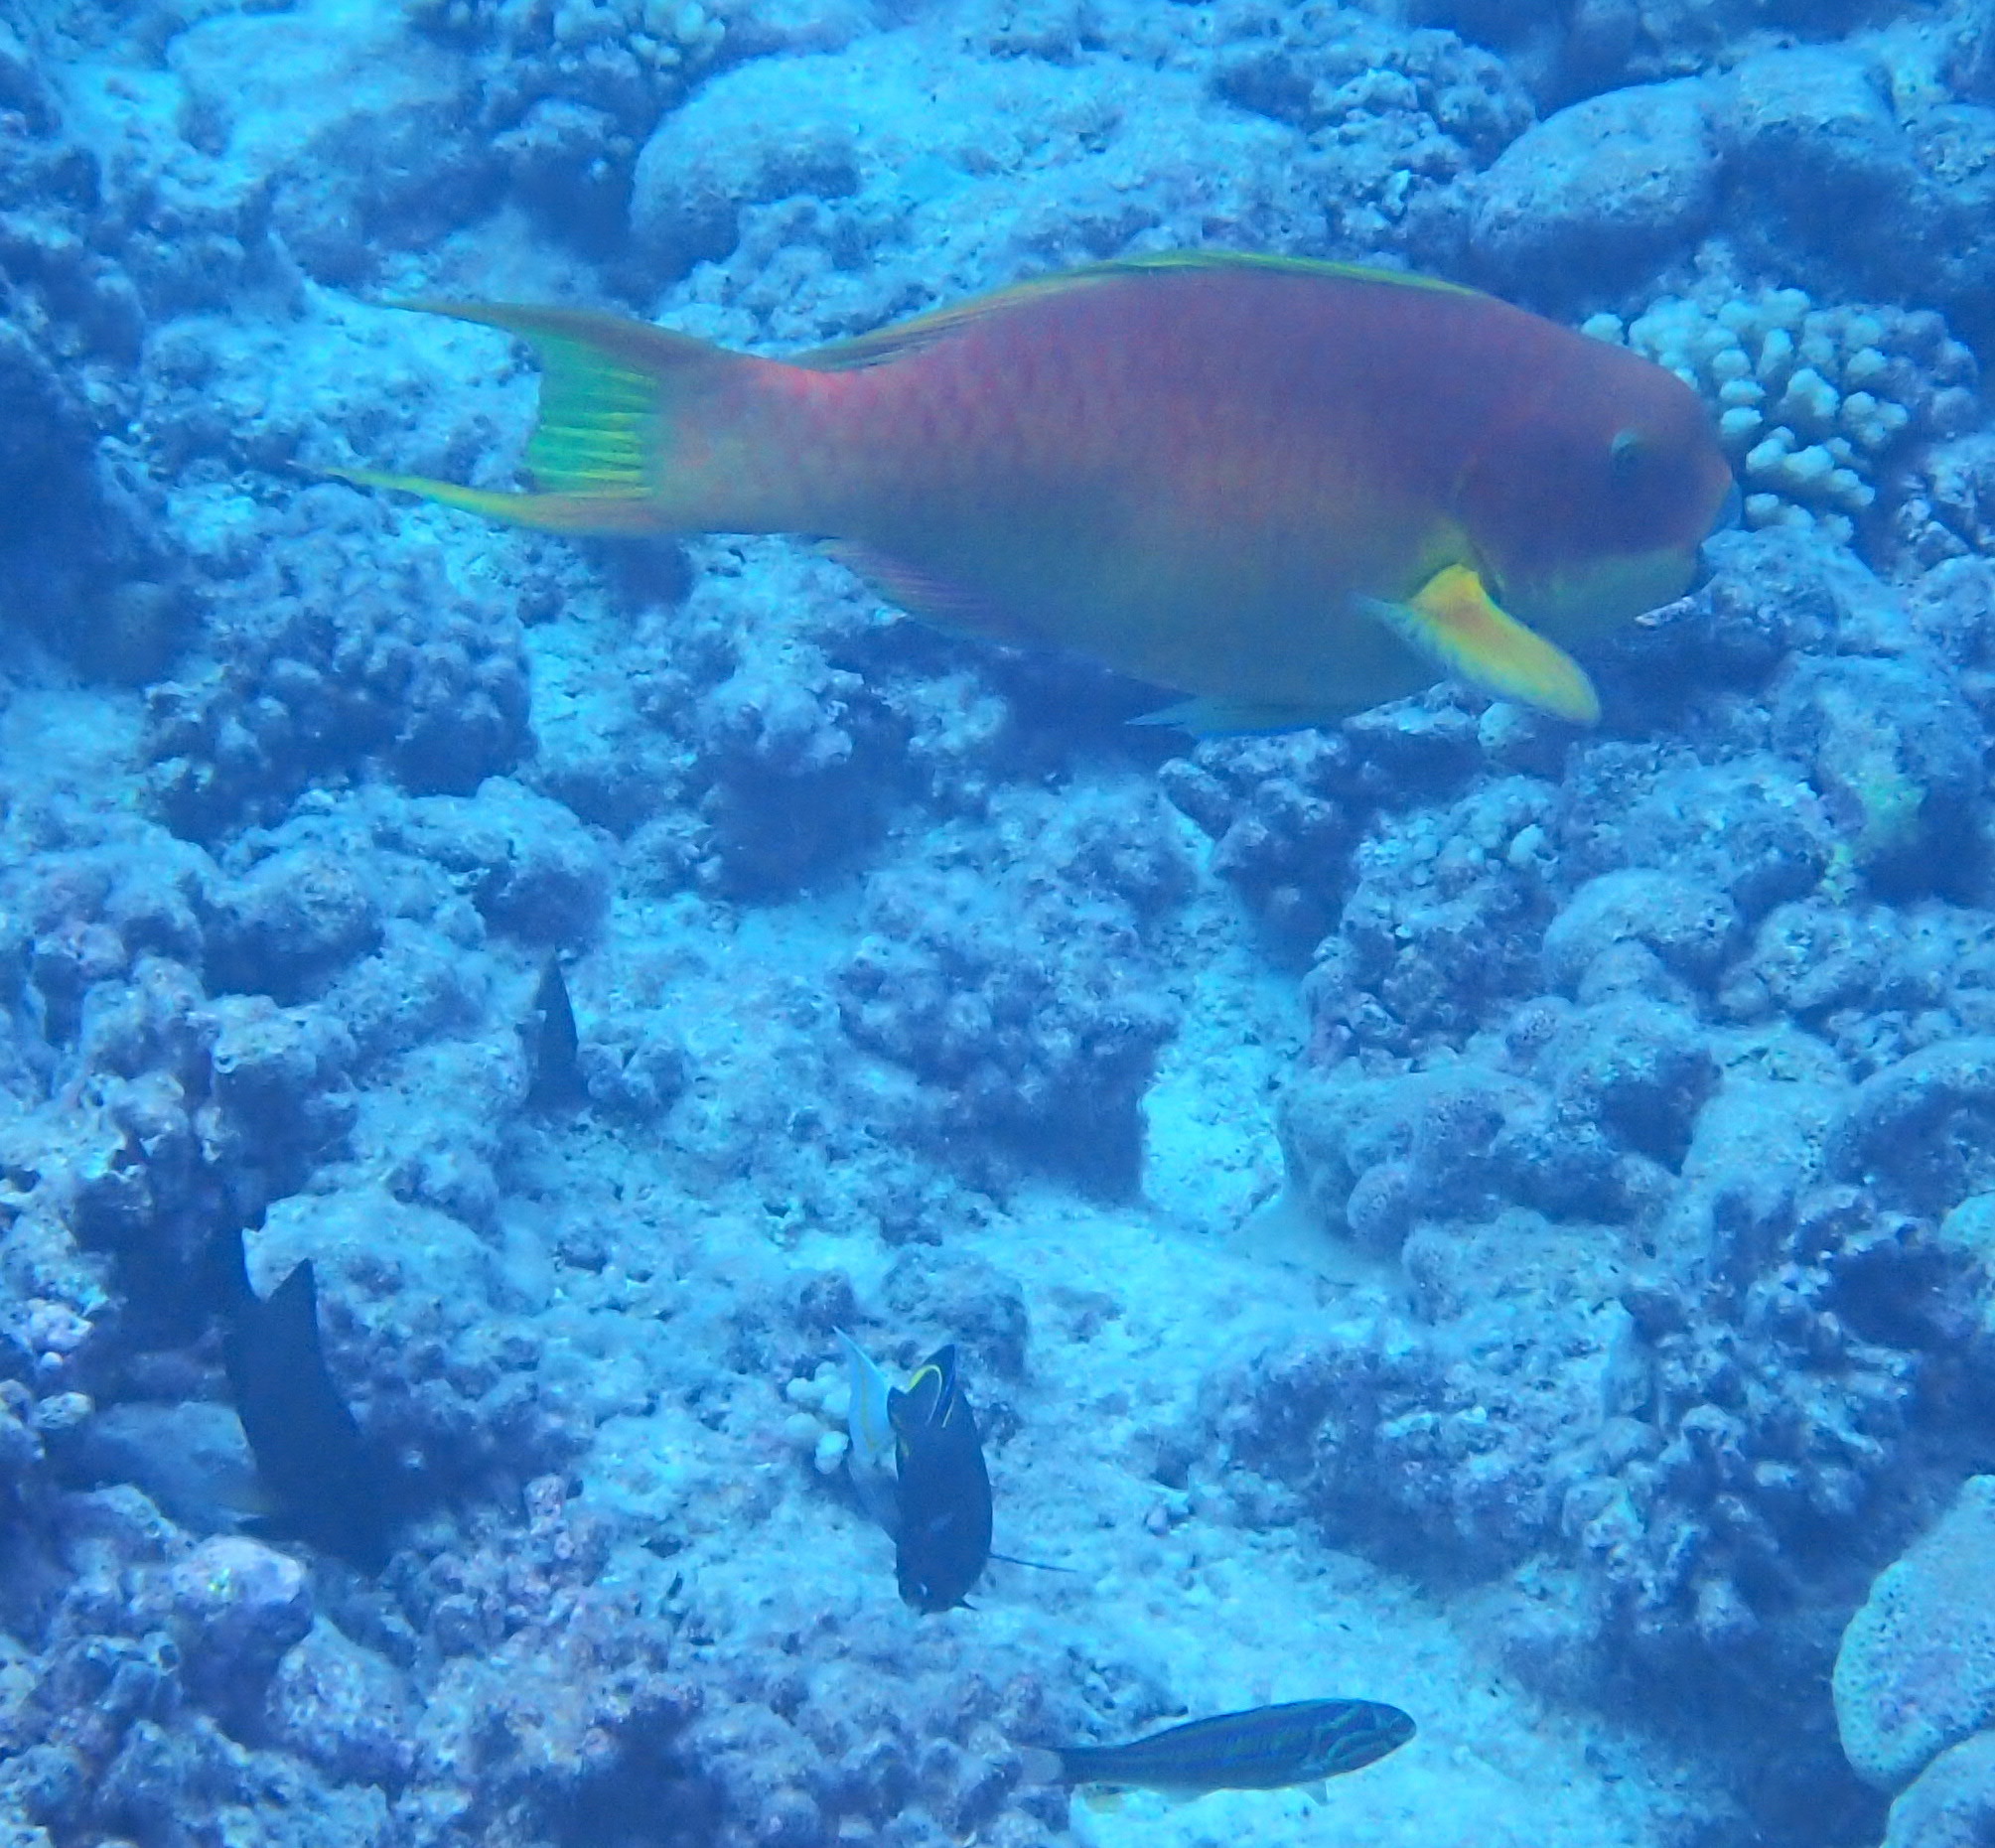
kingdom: Animalia
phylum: Chordata
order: Perciformes
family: Scaridae
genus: Chlorurus
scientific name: Chlorurus microrhinos
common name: Steephead parrotfish
